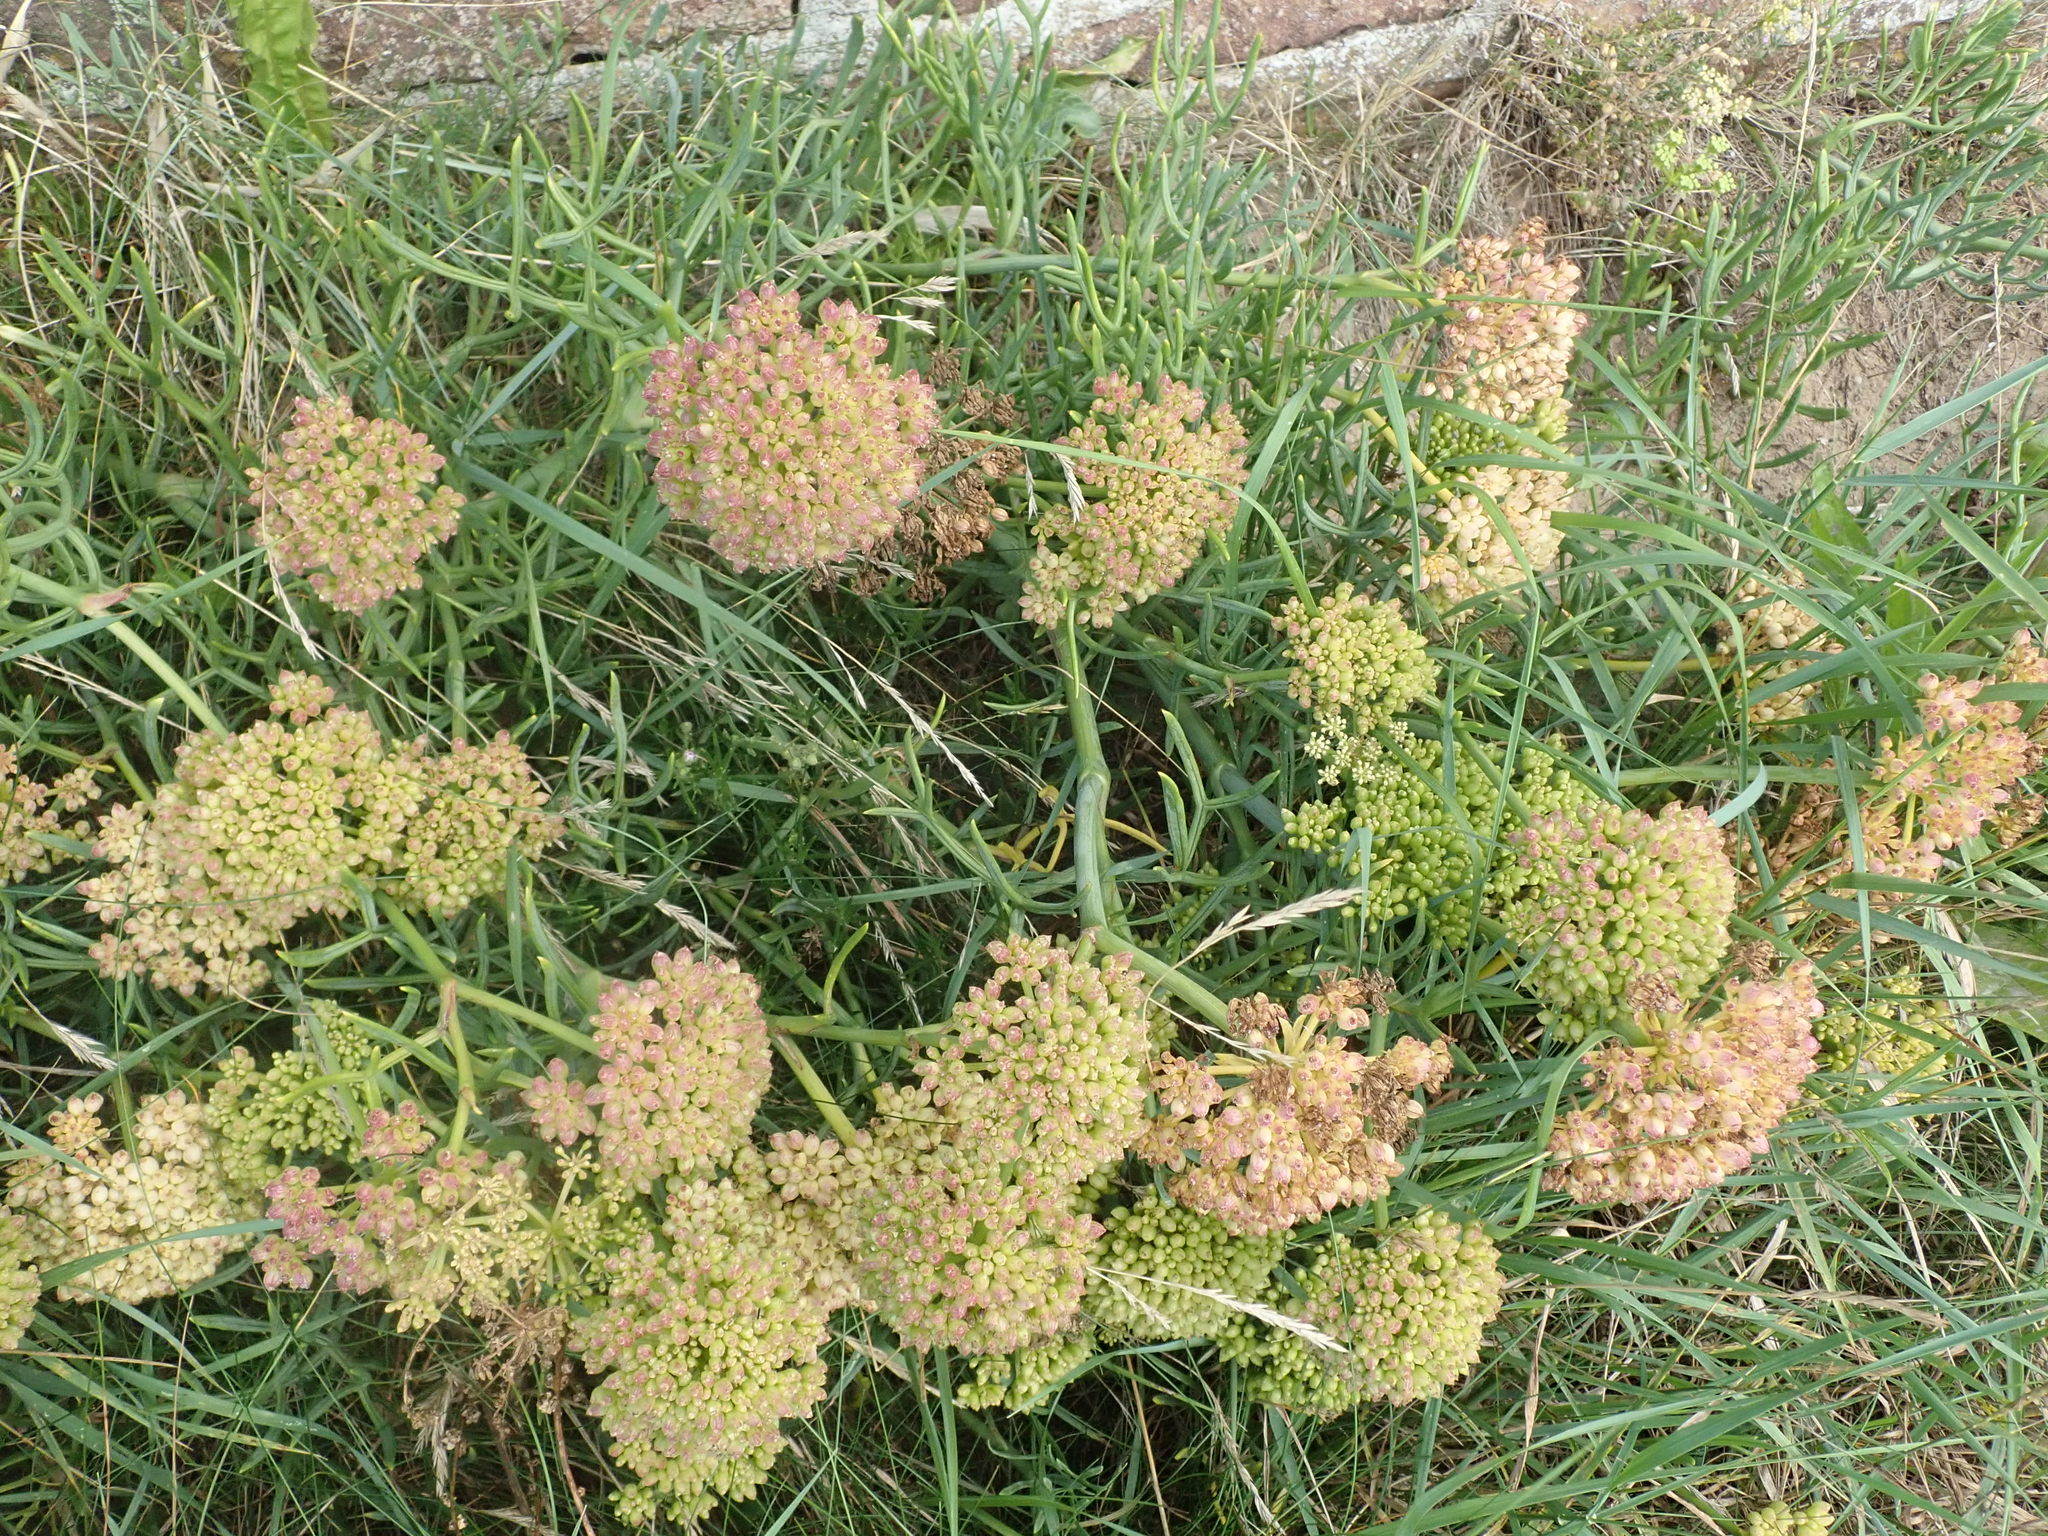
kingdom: Plantae
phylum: Tracheophyta
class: Magnoliopsida
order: Apiales
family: Apiaceae
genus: Crithmum
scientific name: Crithmum maritimum
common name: Rock samphire
